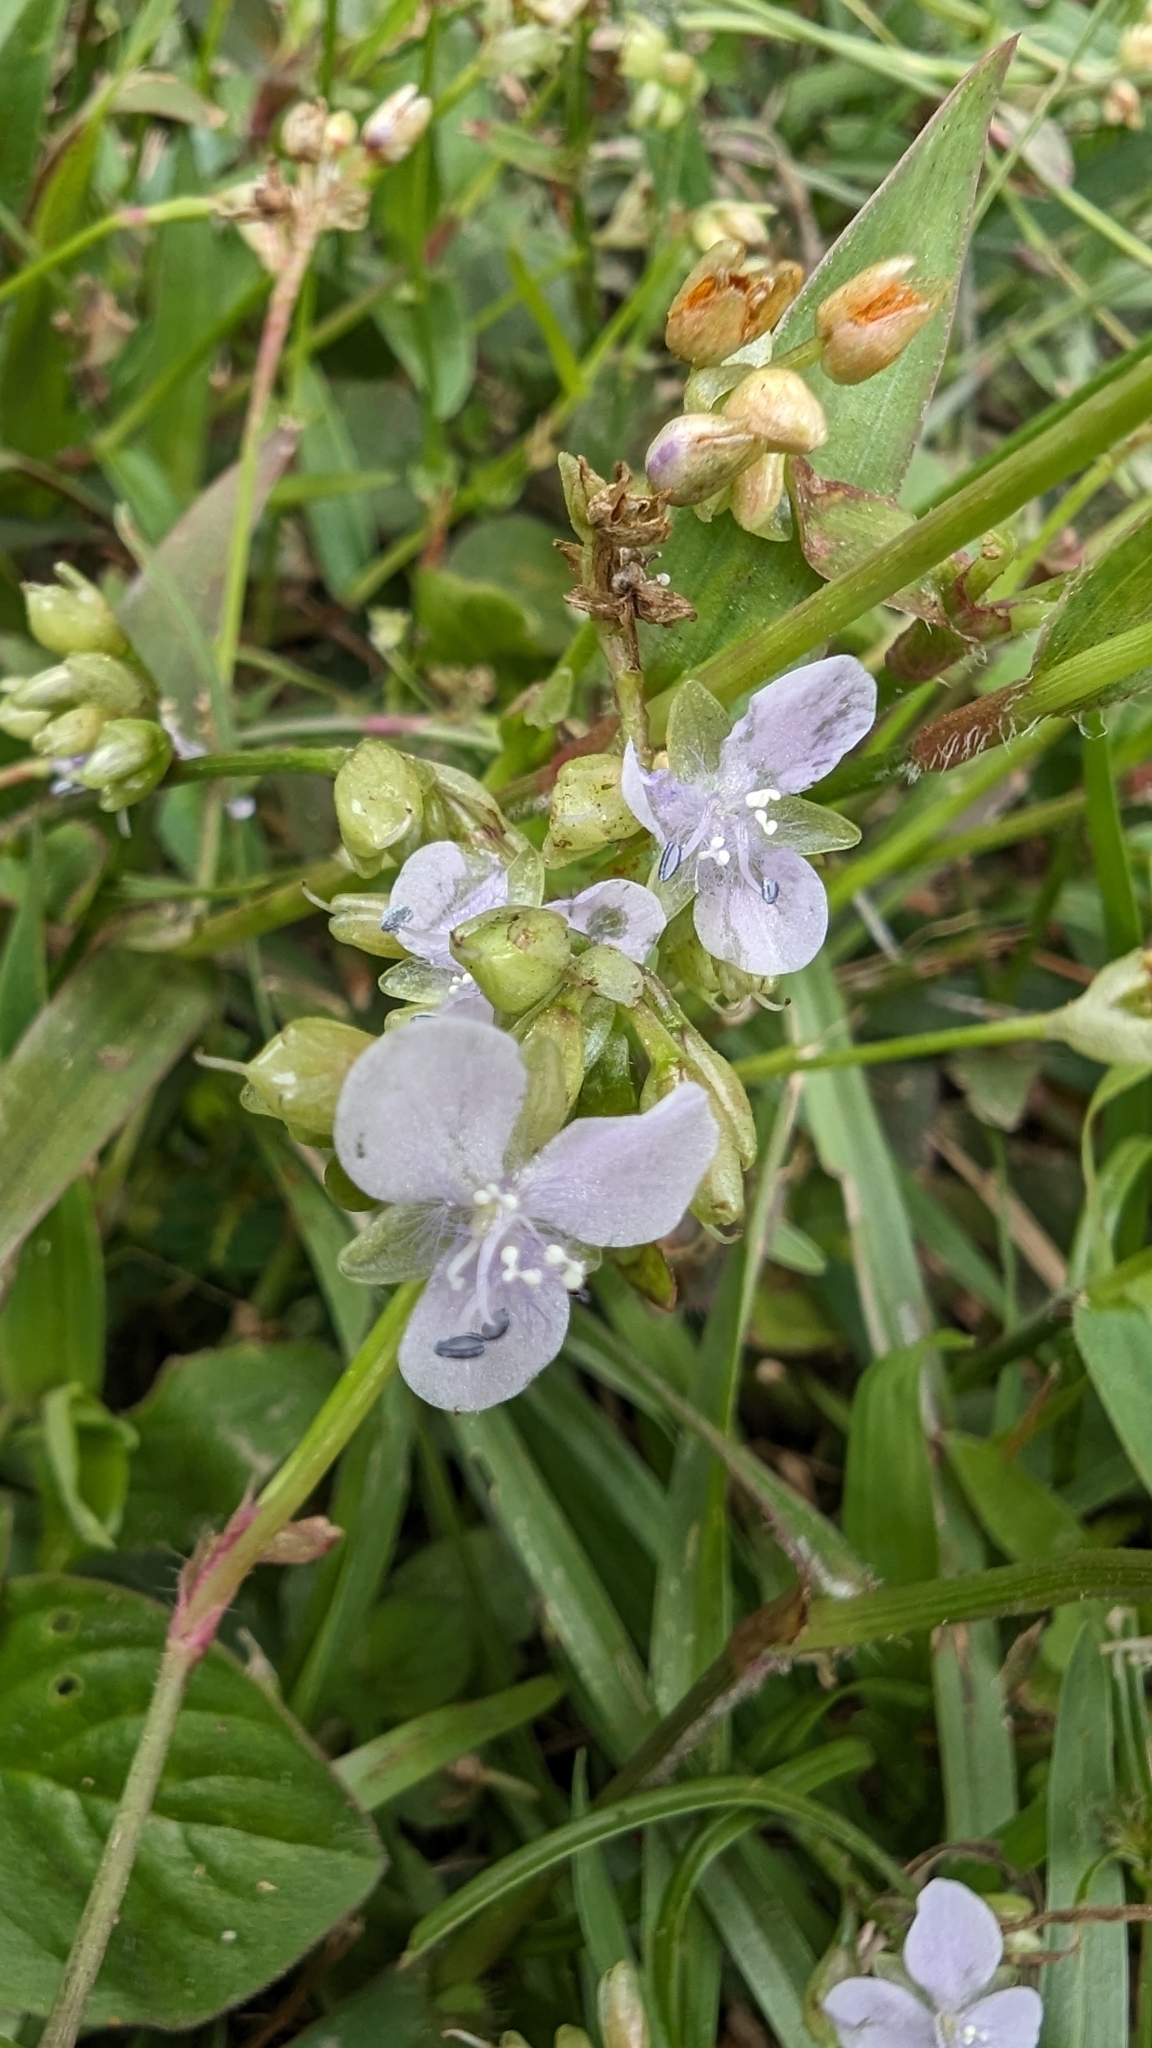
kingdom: Plantae
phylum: Tracheophyta
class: Liliopsida
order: Commelinales
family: Commelinaceae
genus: Murdannia
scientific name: Murdannia loriformis
